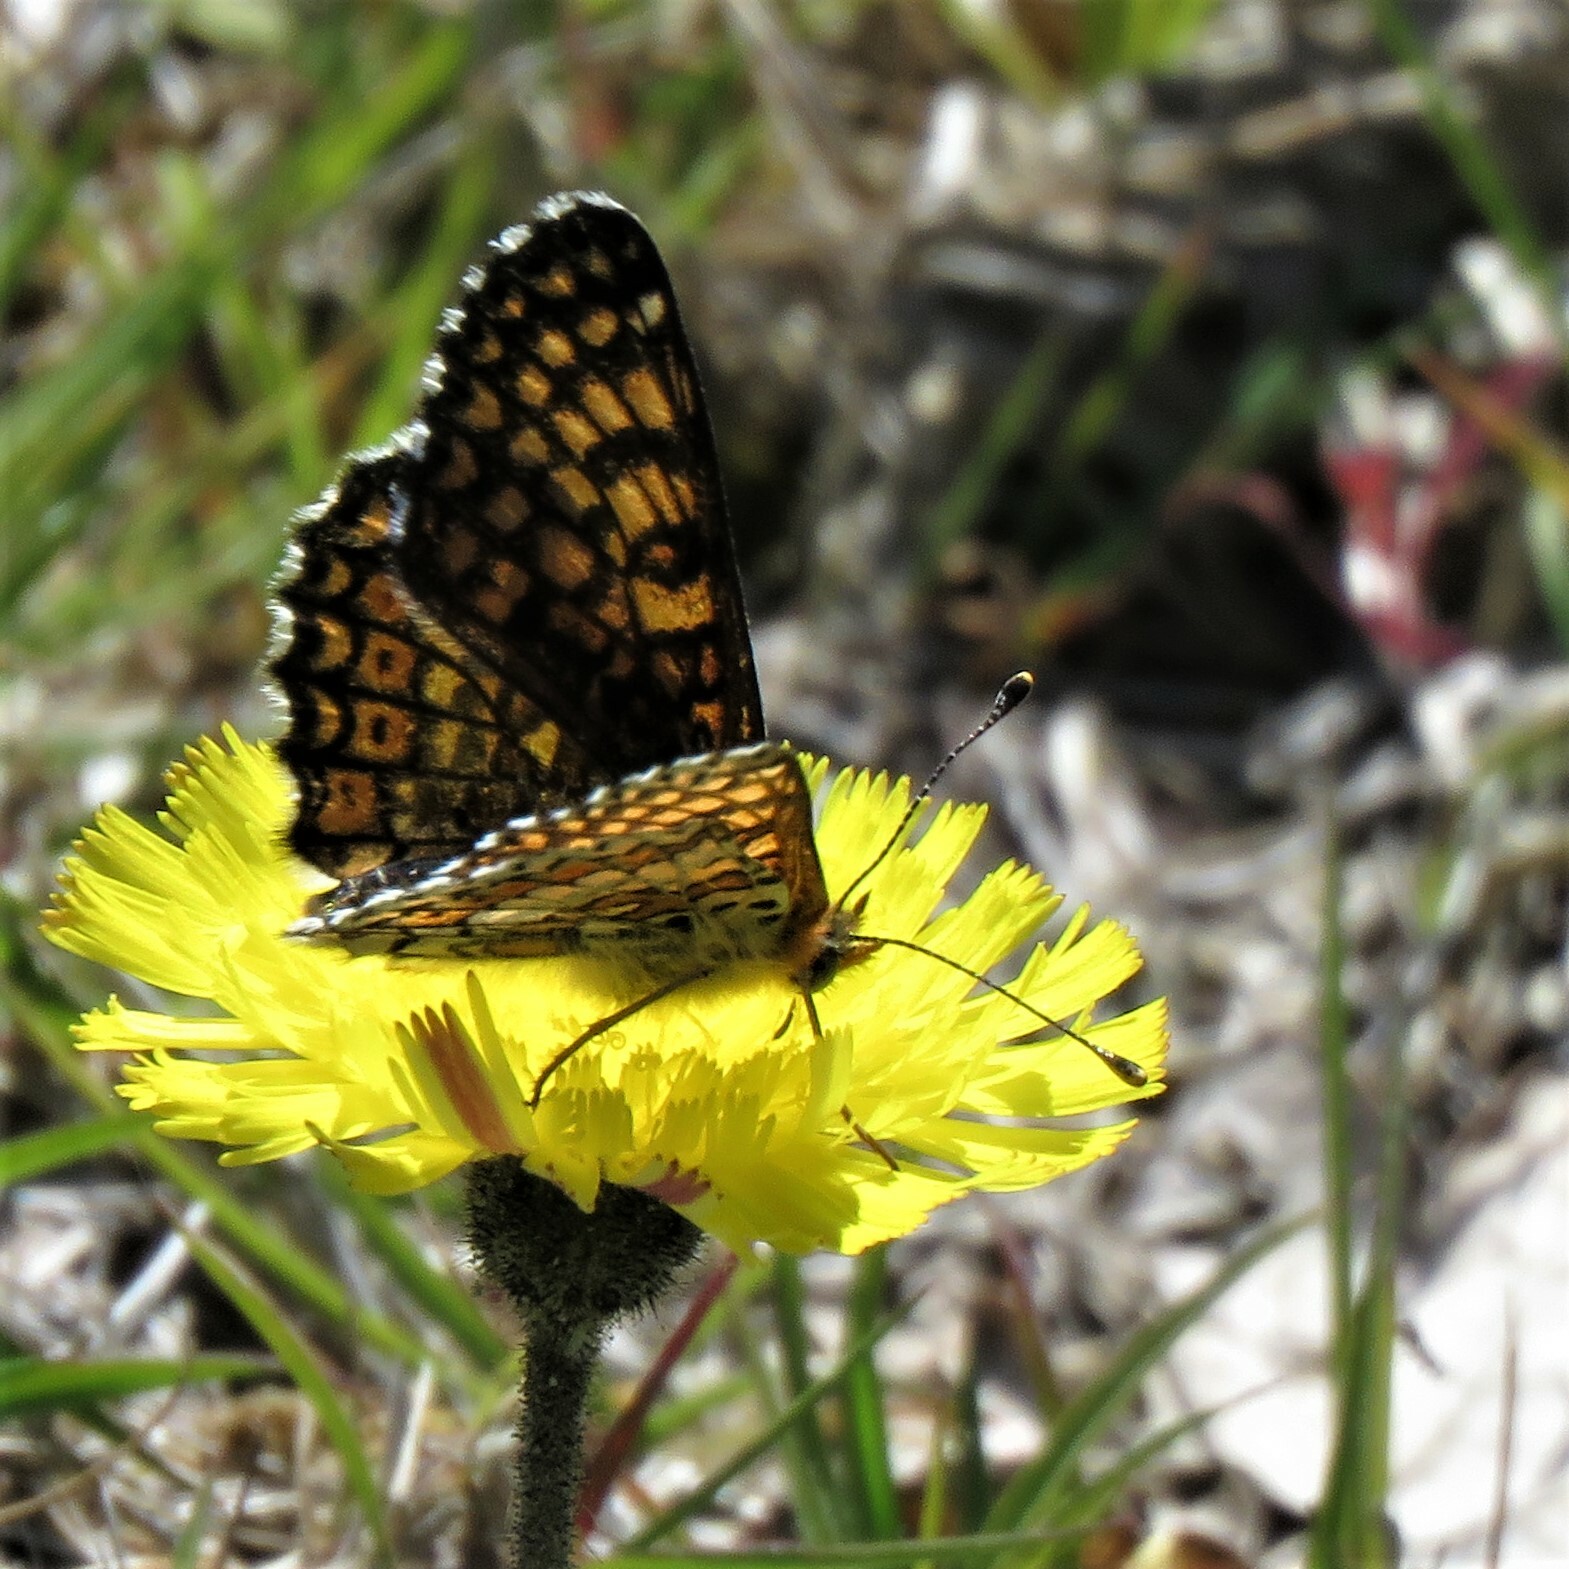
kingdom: Animalia
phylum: Arthropoda
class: Insecta
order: Lepidoptera
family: Nymphalidae
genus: Melitaea
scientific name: Melitaea cinxia
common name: Glanville fritillary
